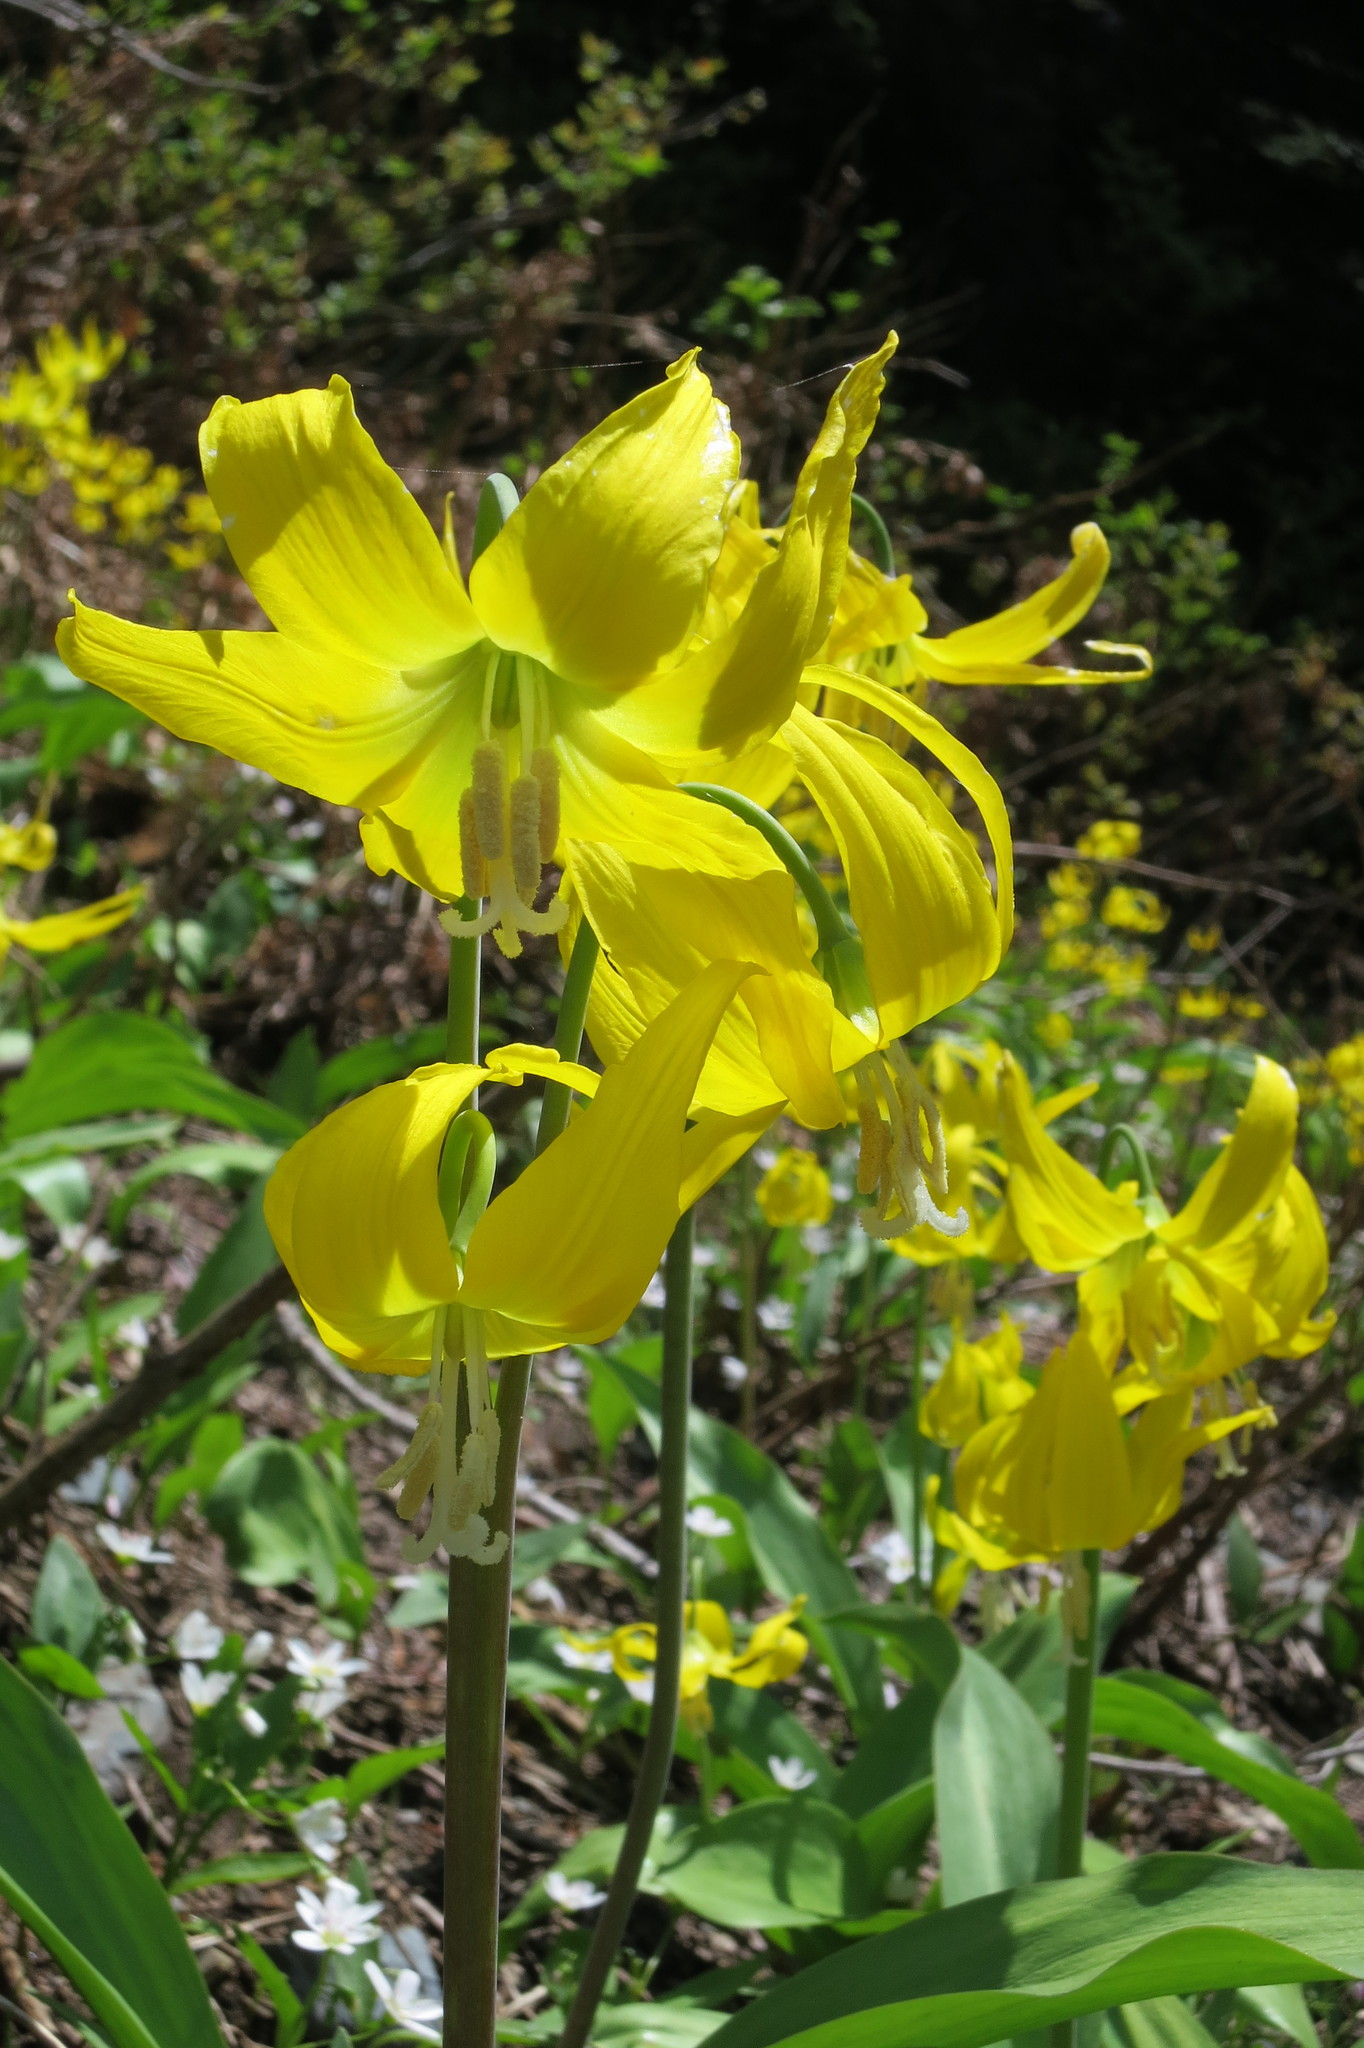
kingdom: Plantae
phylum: Tracheophyta
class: Liliopsida
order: Liliales
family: Liliaceae
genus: Erythronium
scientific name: Erythronium grandiflorum
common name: Avalanche-lily
